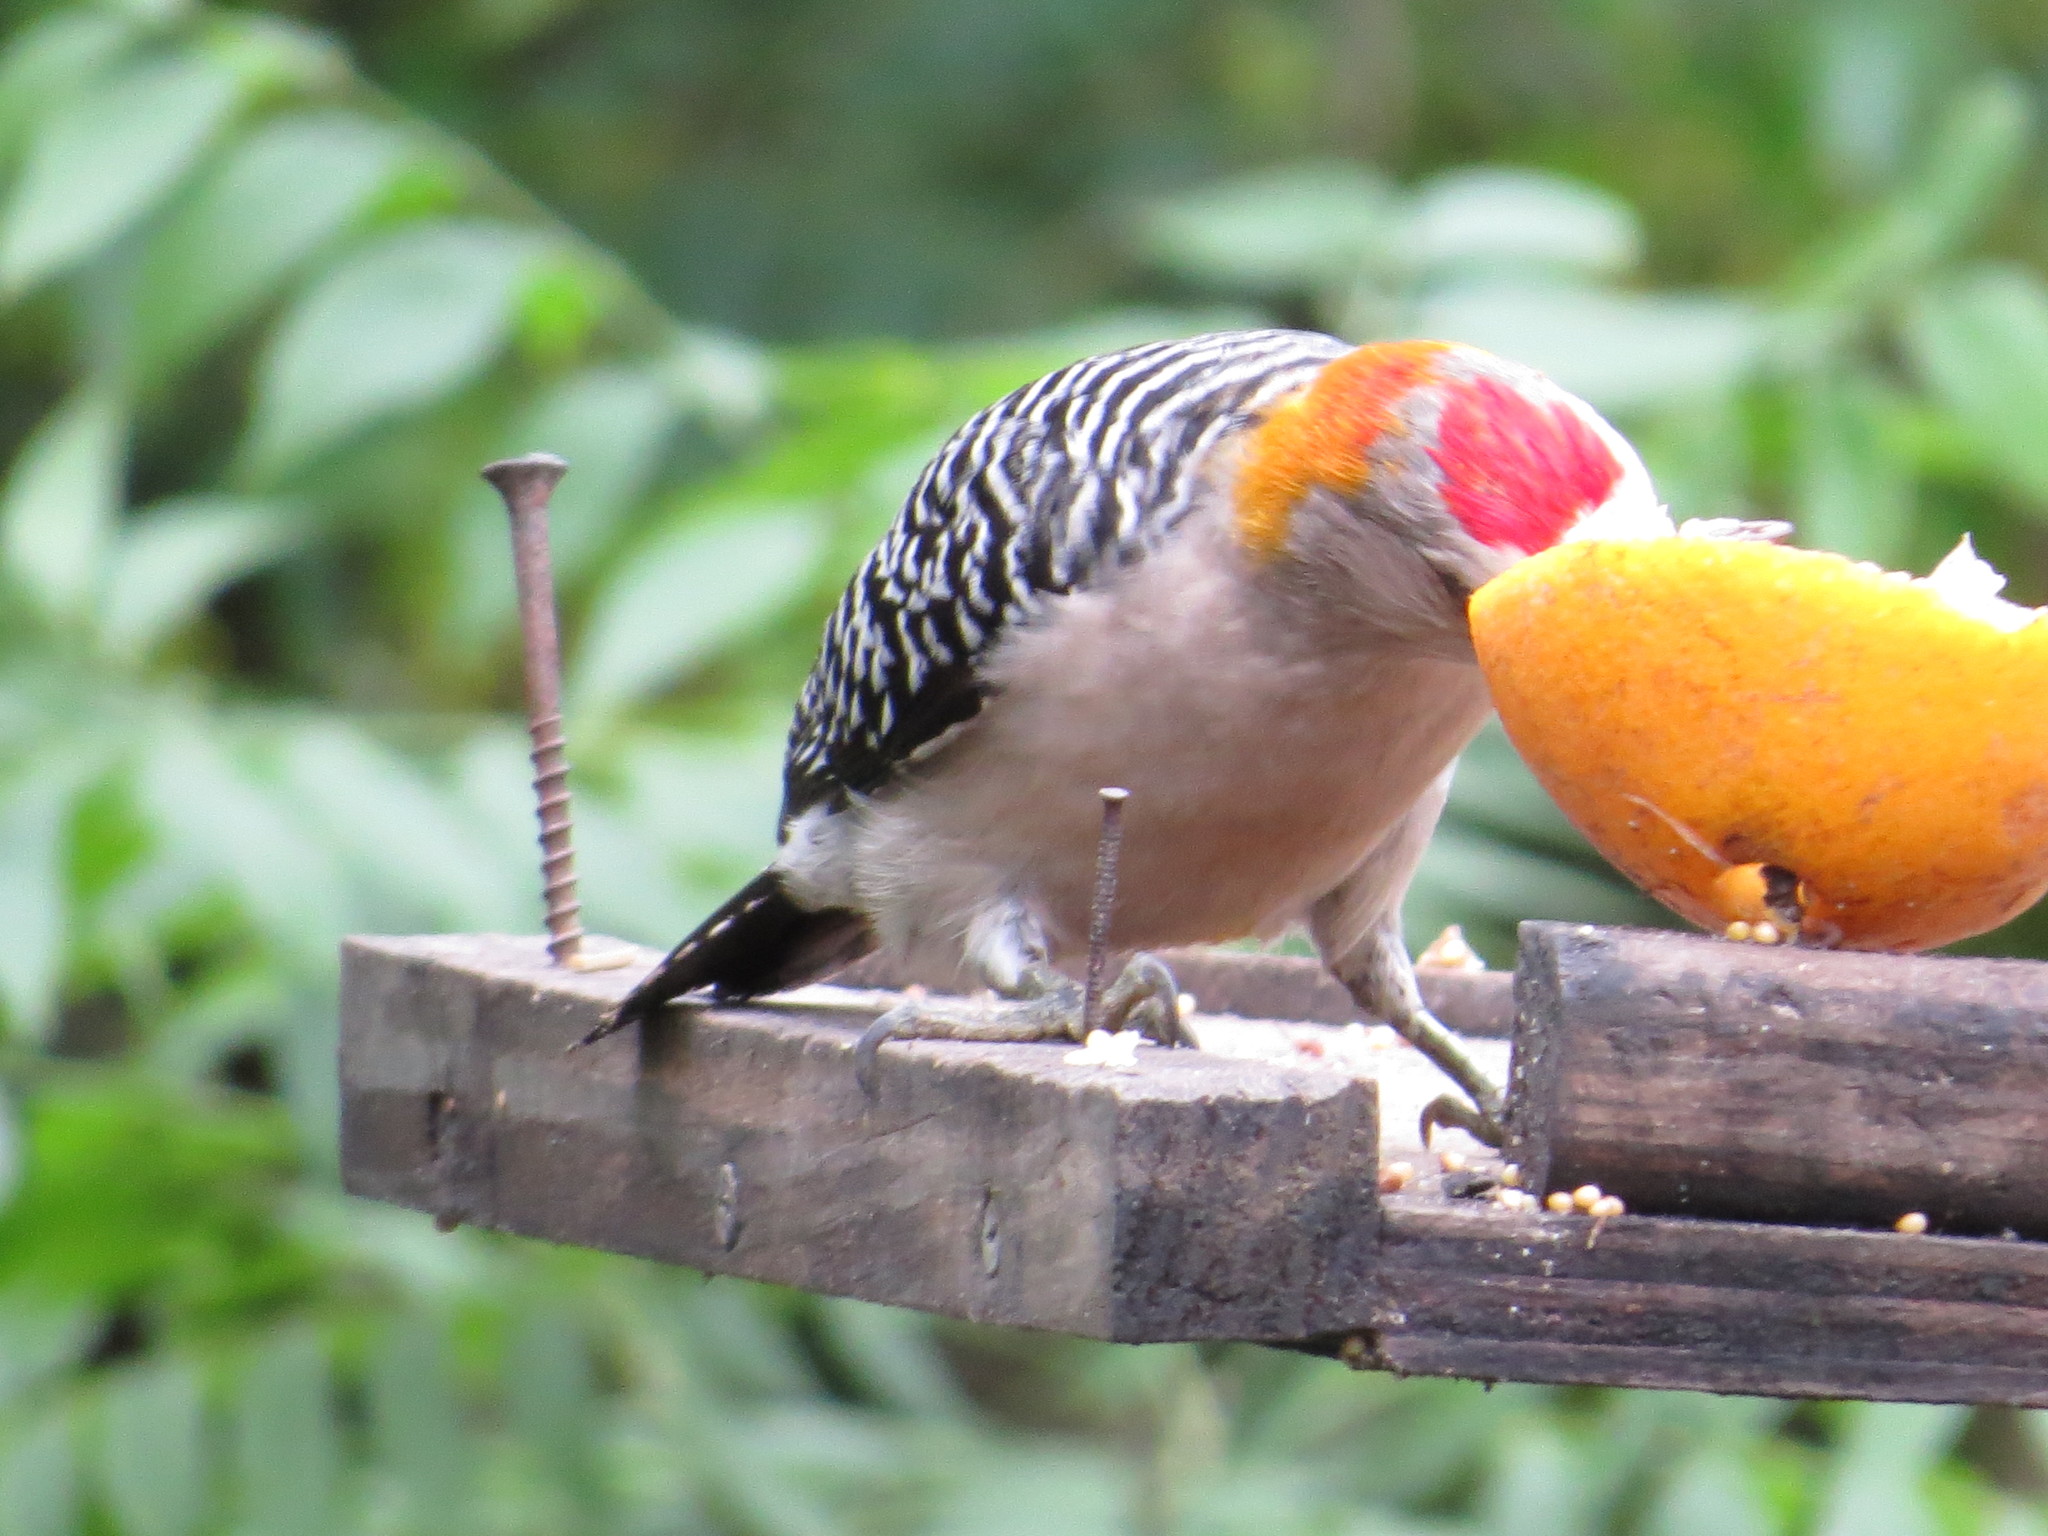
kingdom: Animalia
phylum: Chordata
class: Aves
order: Piciformes
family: Picidae
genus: Melanerpes
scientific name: Melanerpes aurifrons
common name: Golden-fronted woodpecker
